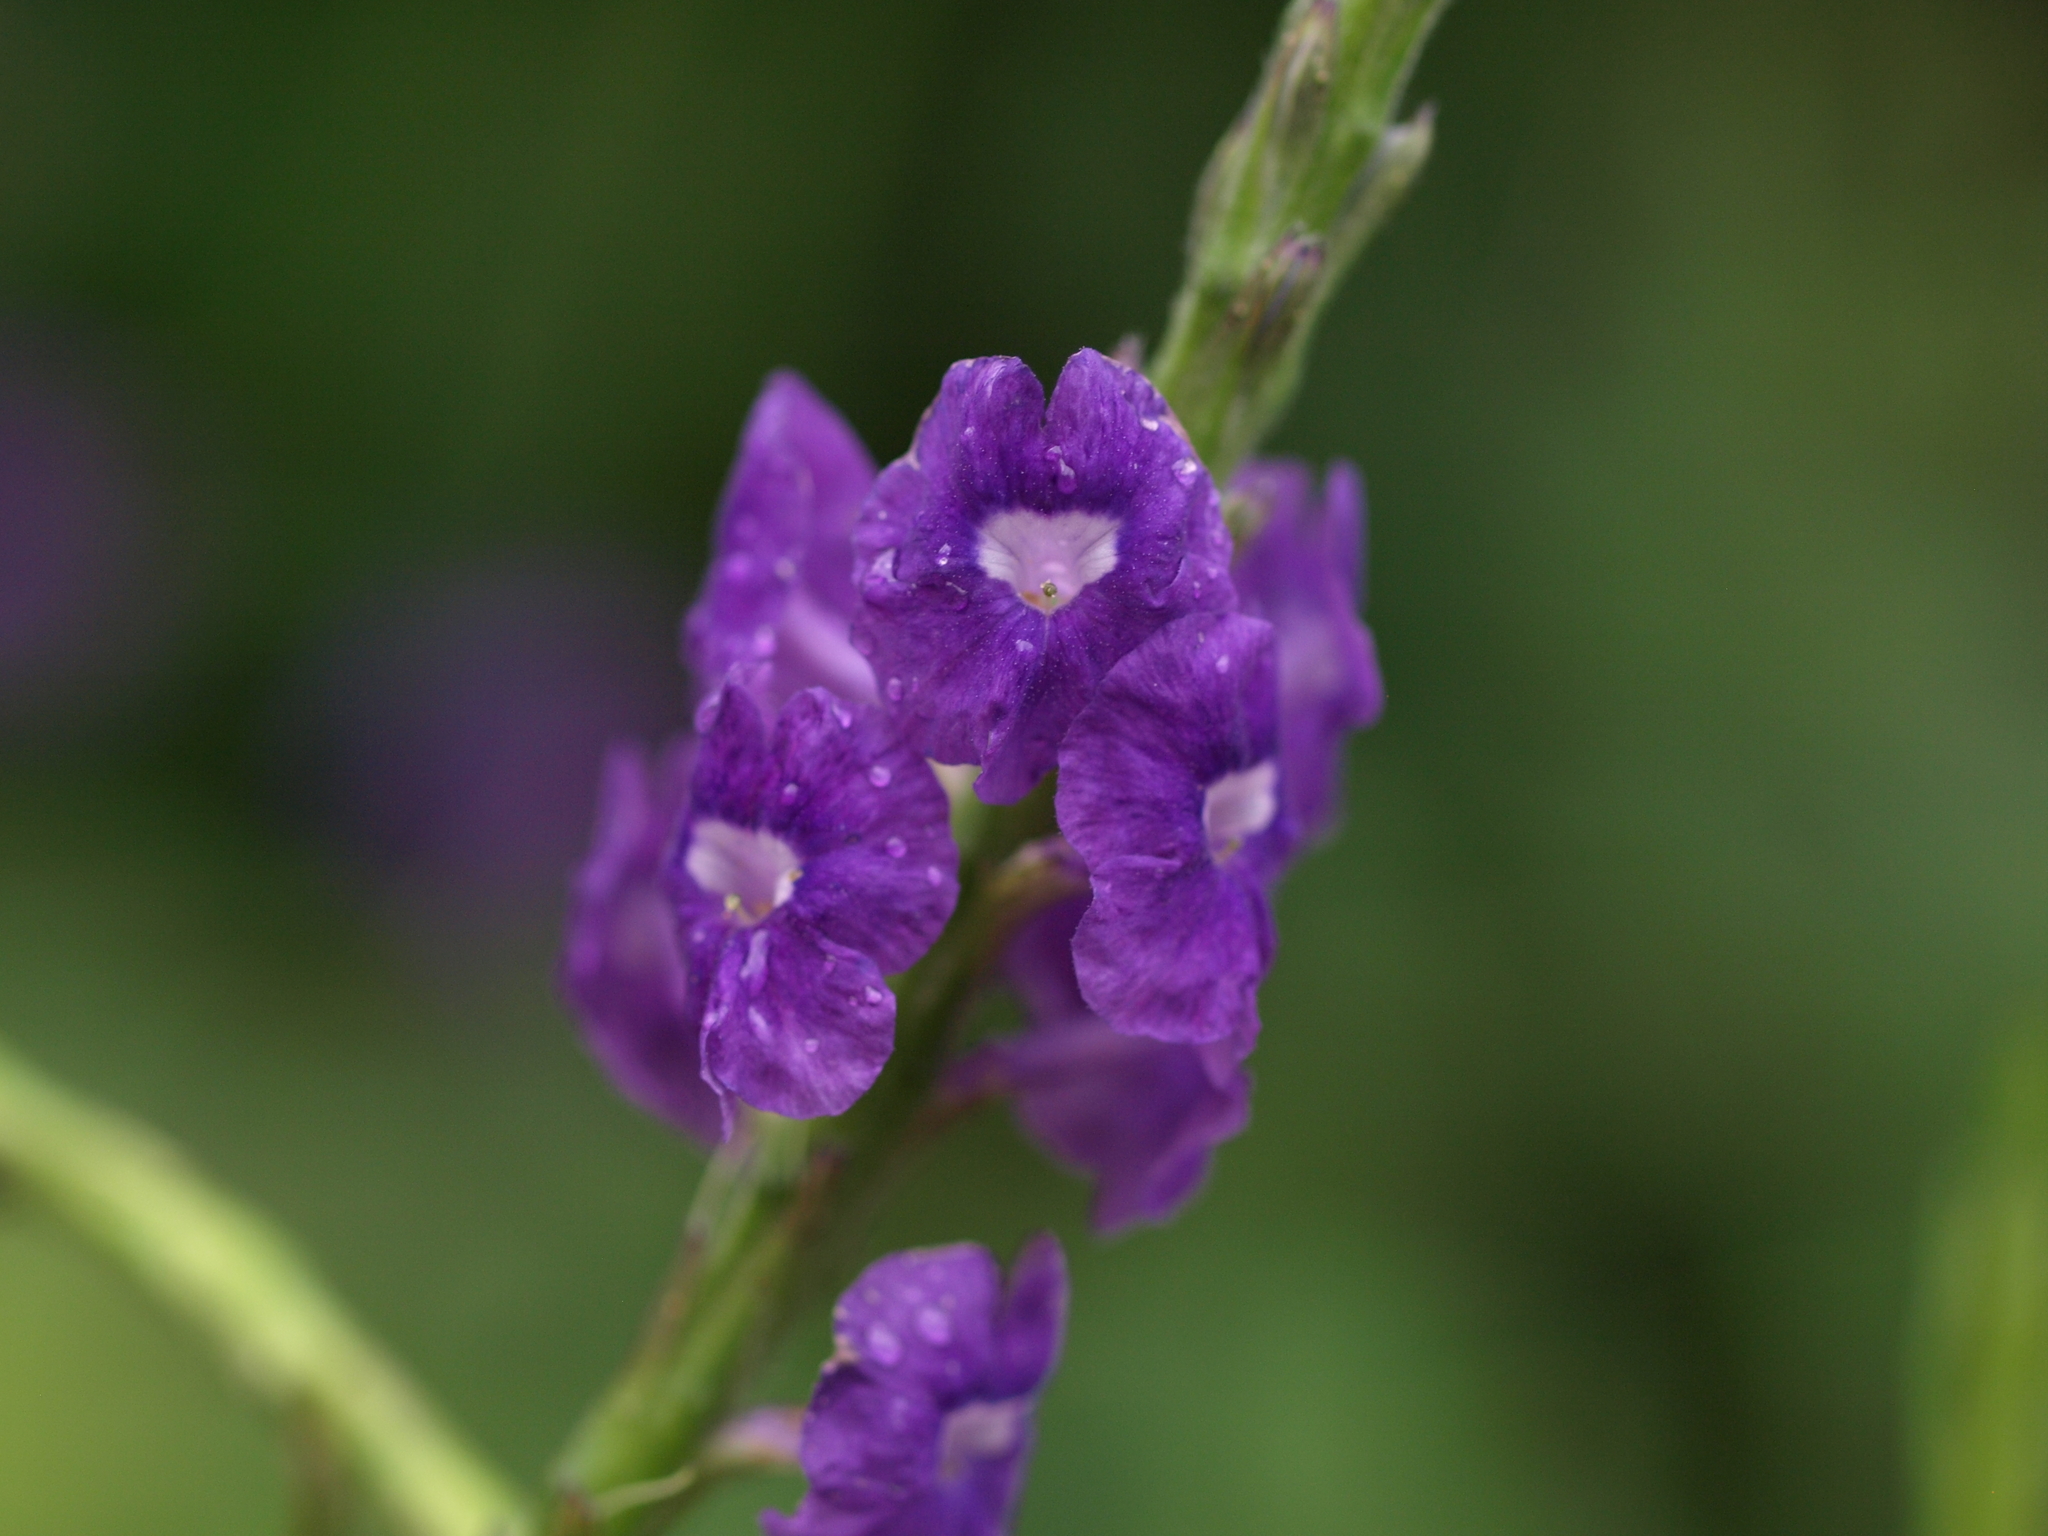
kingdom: Plantae
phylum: Tracheophyta
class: Magnoliopsida
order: Lamiales
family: Verbenaceae
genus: Stachytarpheta
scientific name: Stachytarpheta frantzii
